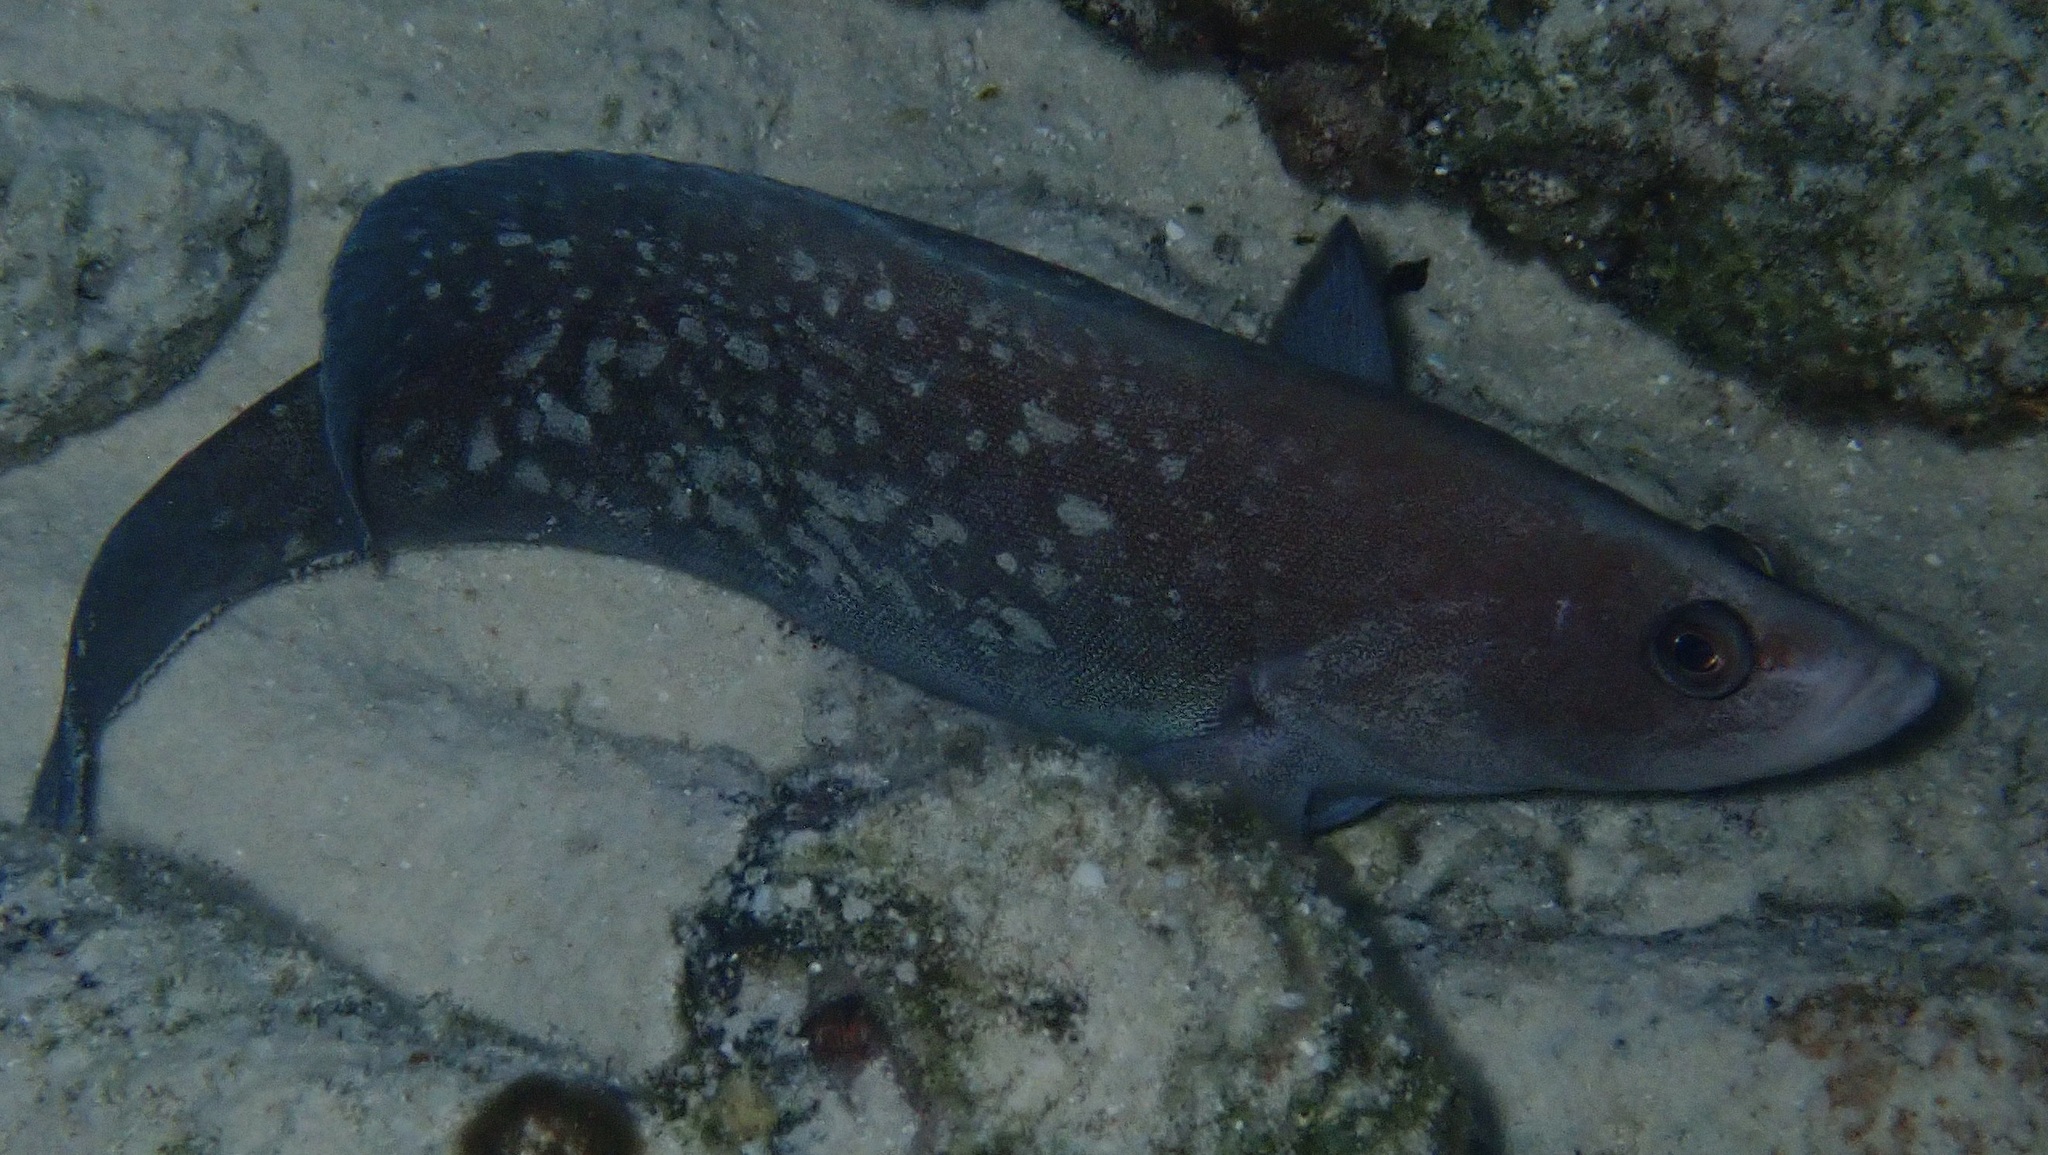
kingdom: Animalia
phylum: Chordata
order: Perciformes
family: Serranidae
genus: Rypticus
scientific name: Rypticus saponaceus
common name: Soapfish
